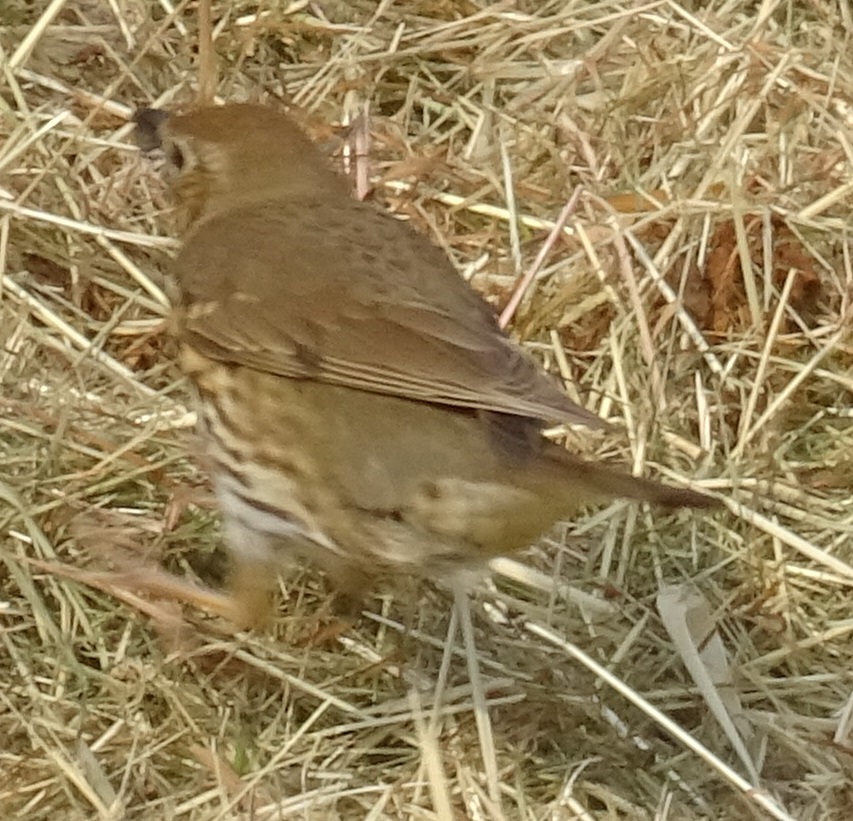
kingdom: Animalia
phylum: Chordata
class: Aves
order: Passeriformes
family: Turdidae
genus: Turdus
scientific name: Turdus philomelos
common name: Song thrush
